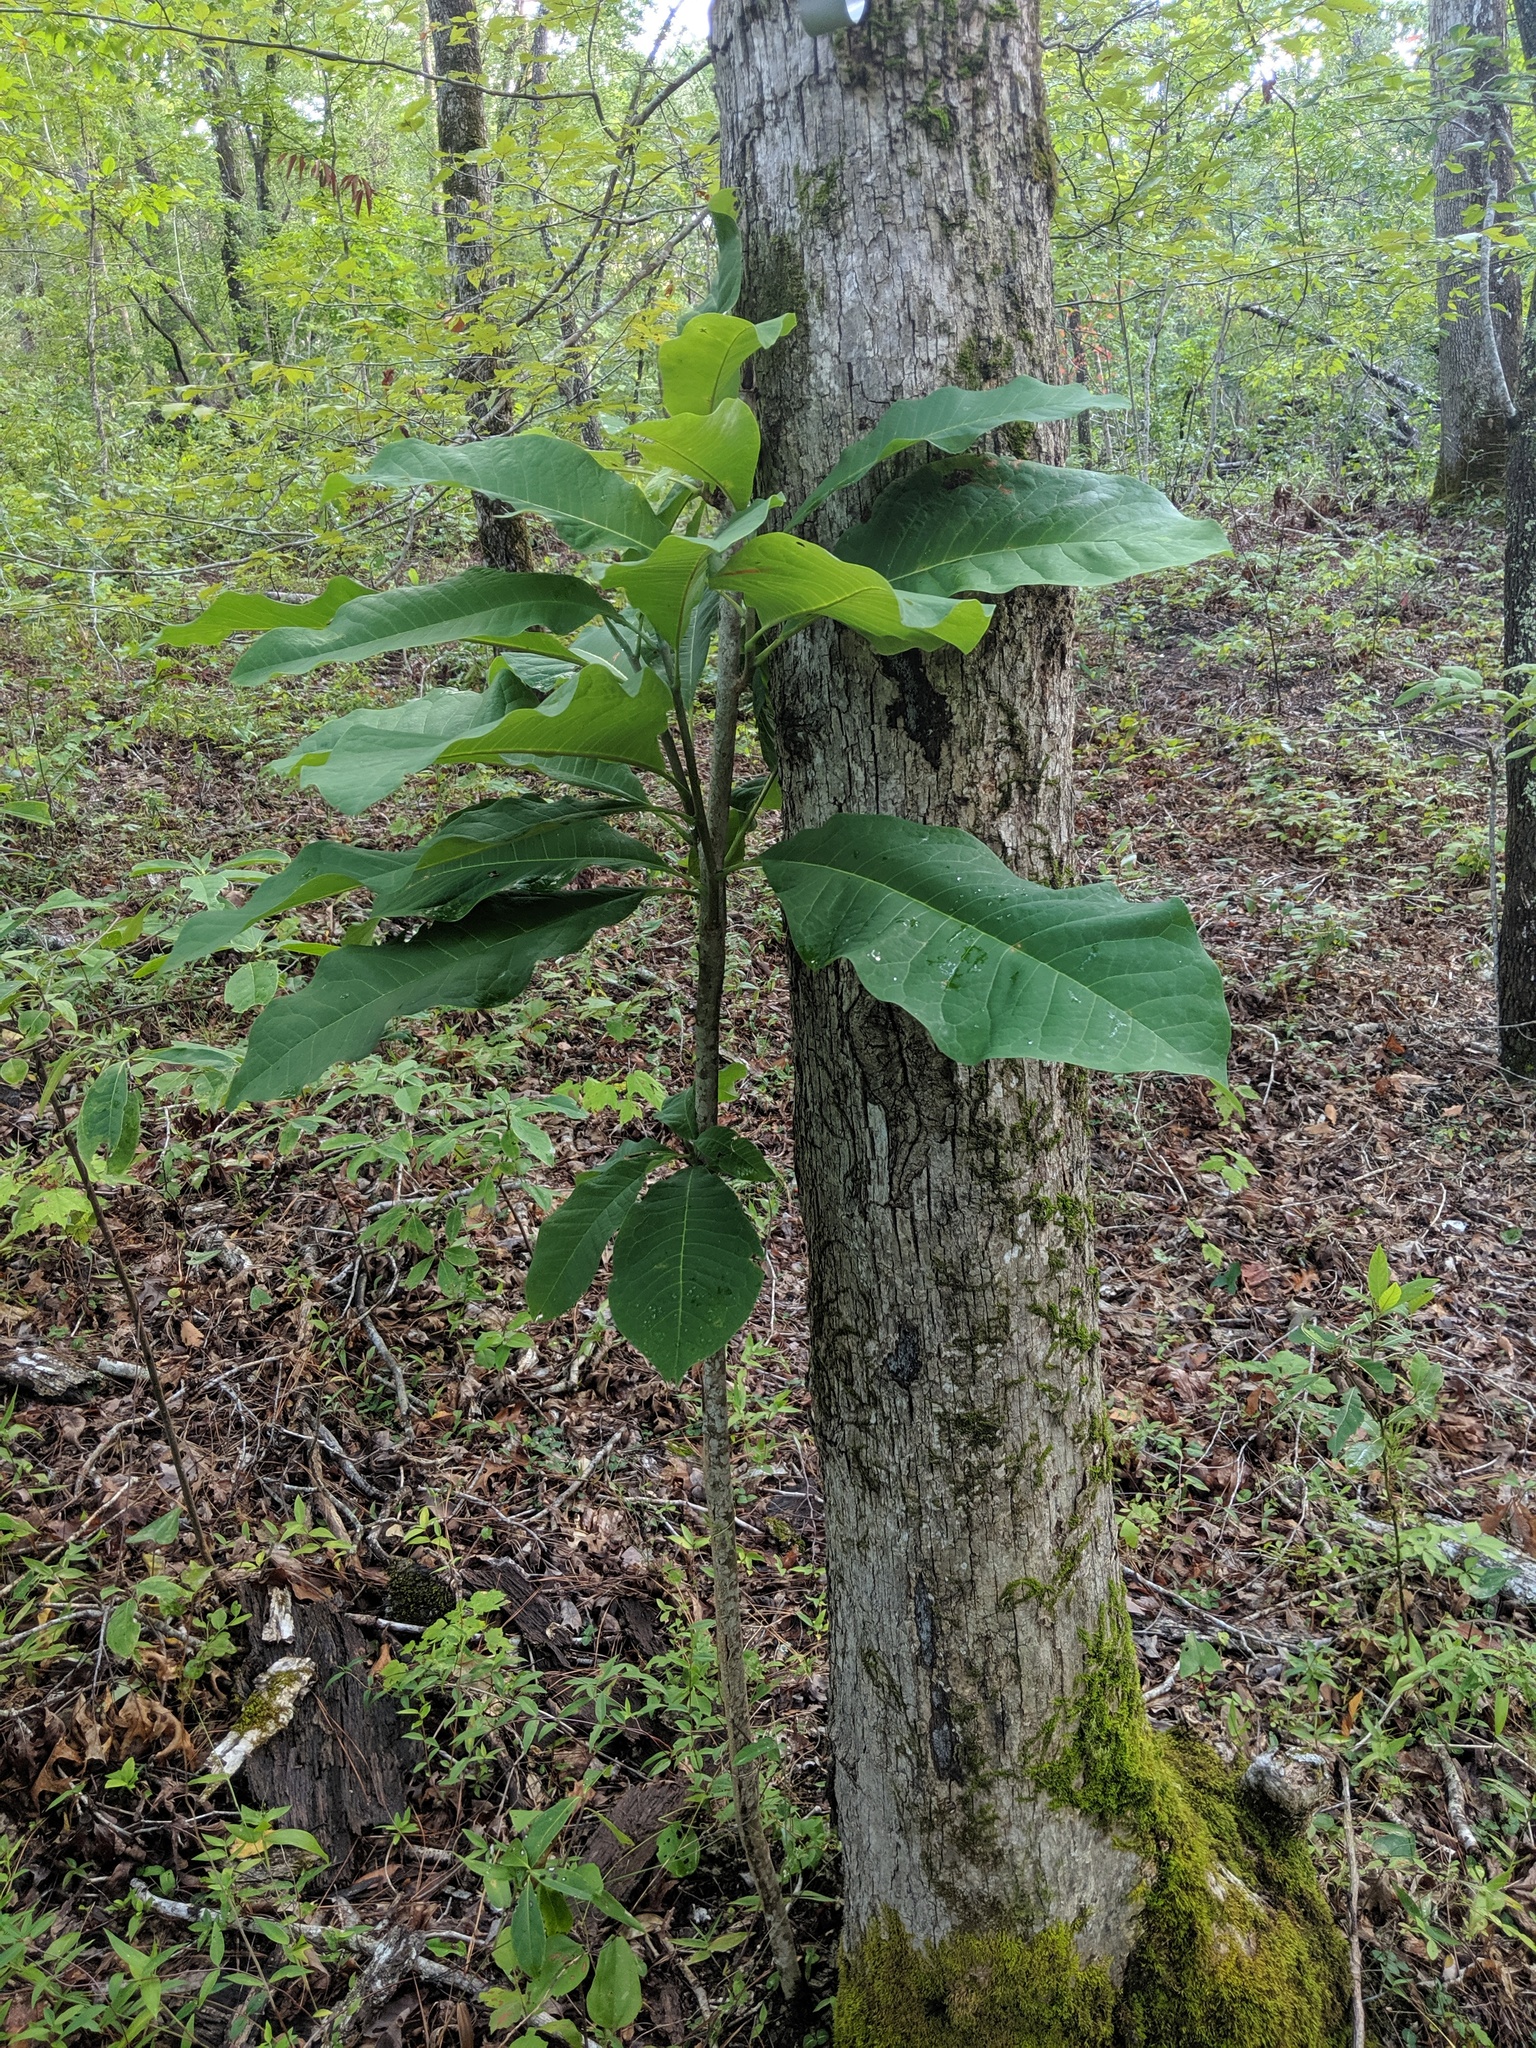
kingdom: Plantae
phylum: Tracheophyta
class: Magnoliopsida
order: Magnoliales
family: Magnoliaceae
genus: Magnolia
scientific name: Magnolia tripetala
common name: Umbrella magnolia
